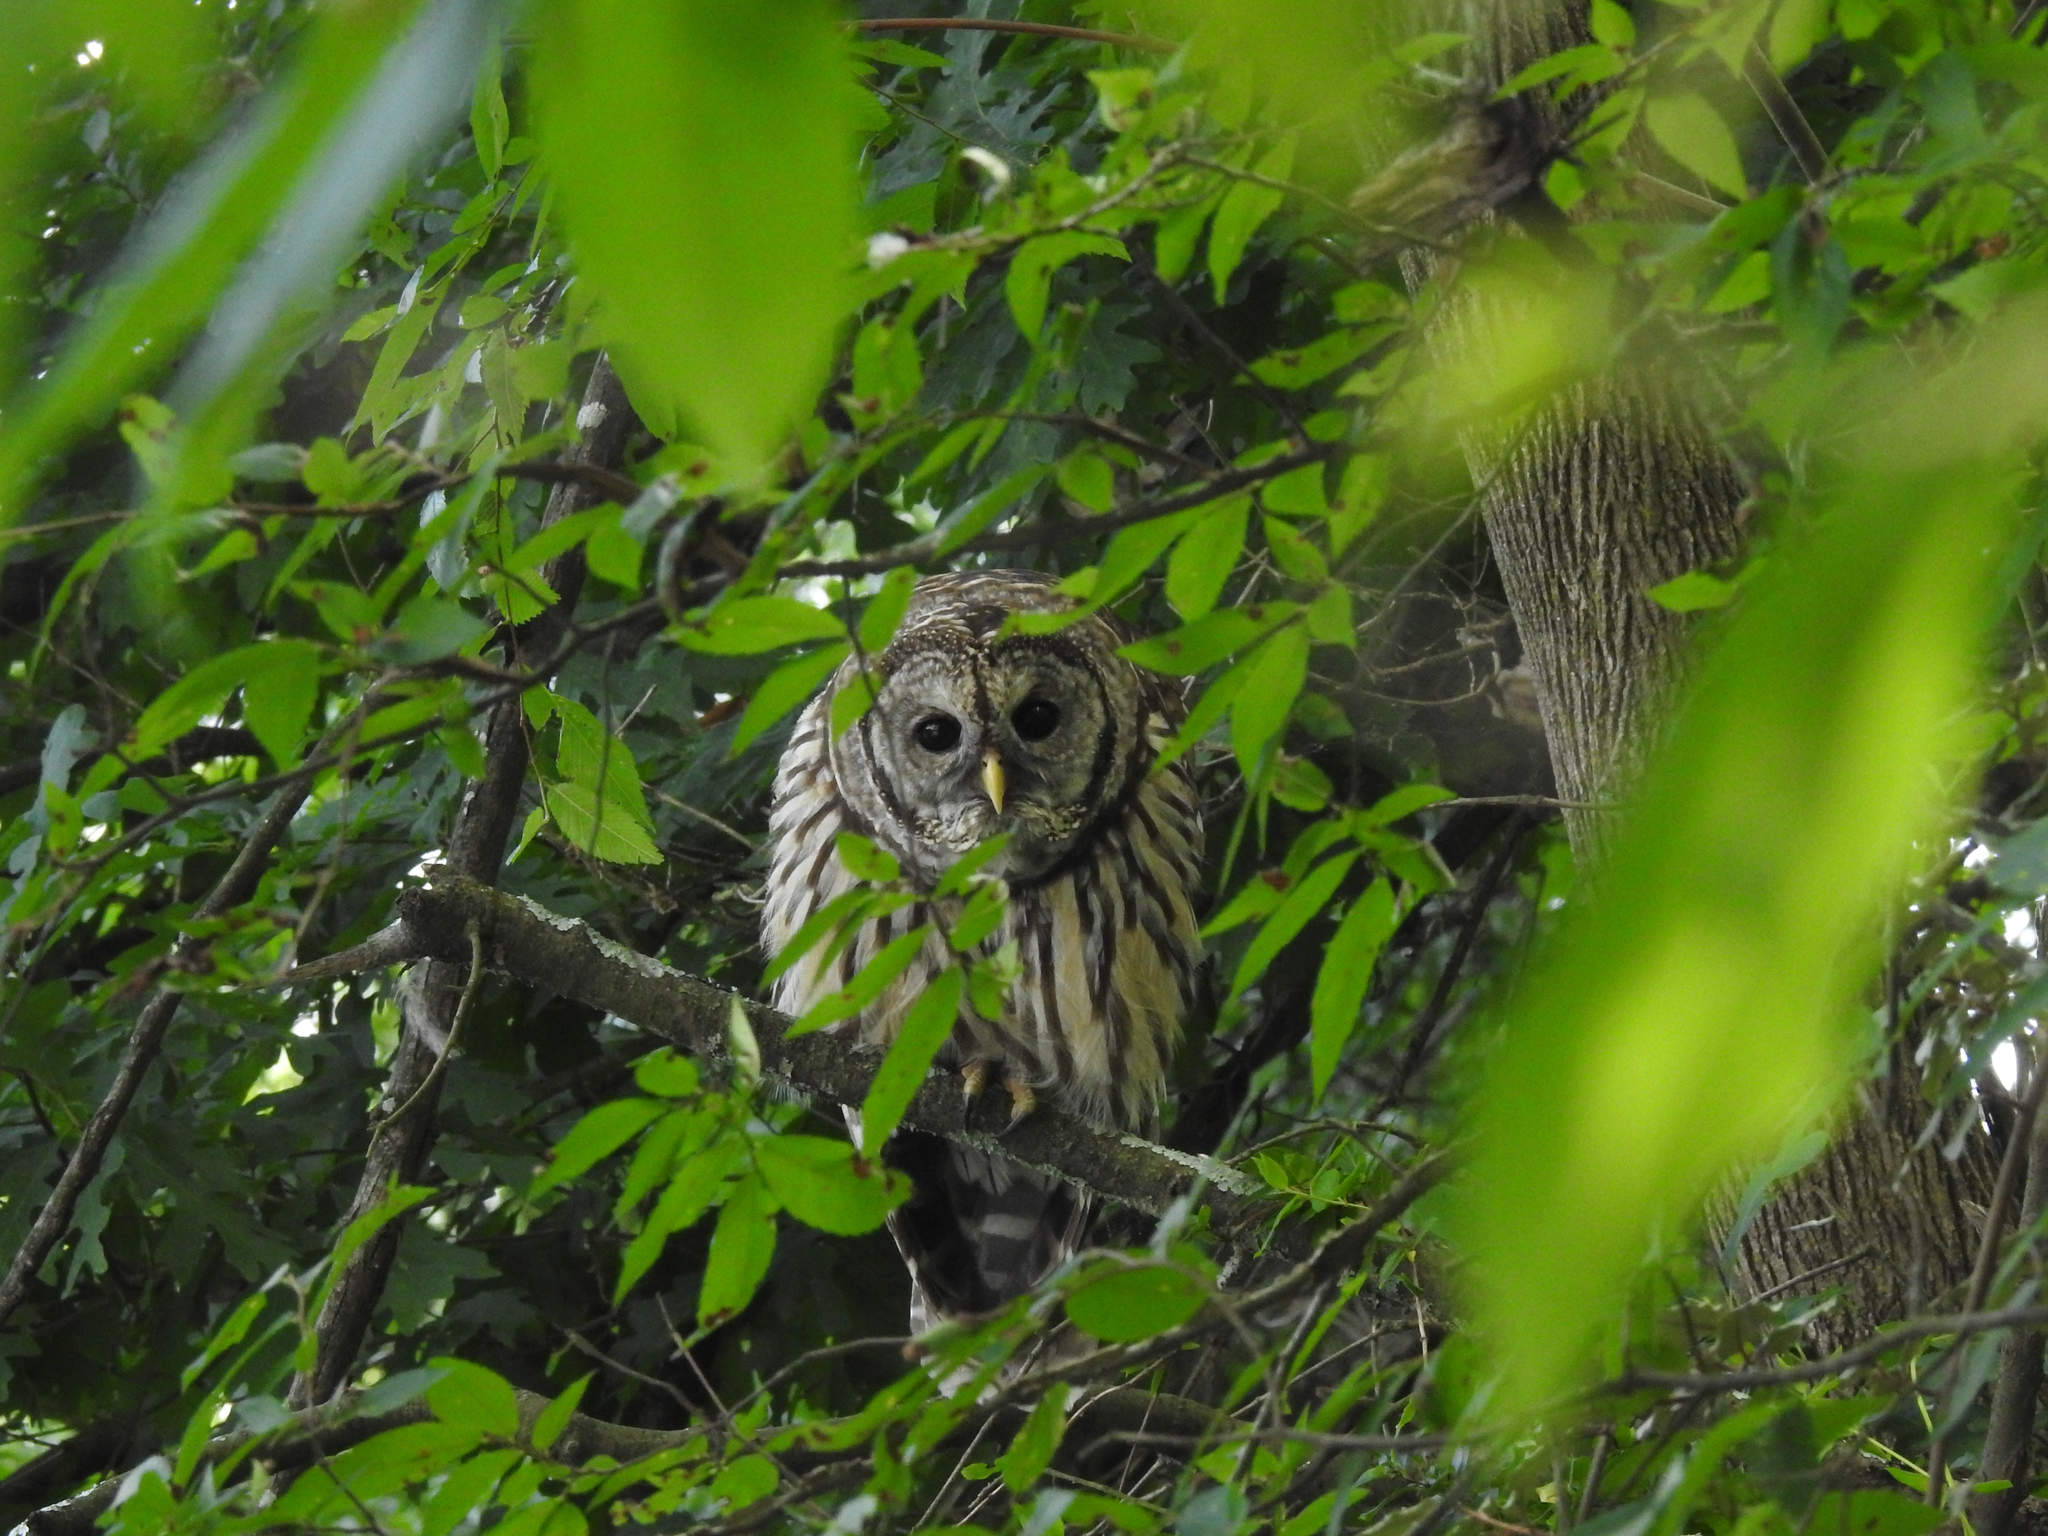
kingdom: Animalia
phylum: Chordata
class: Aves
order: Strigiformes
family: Strigidae
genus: Strix
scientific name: Strix varia
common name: Barred owl
